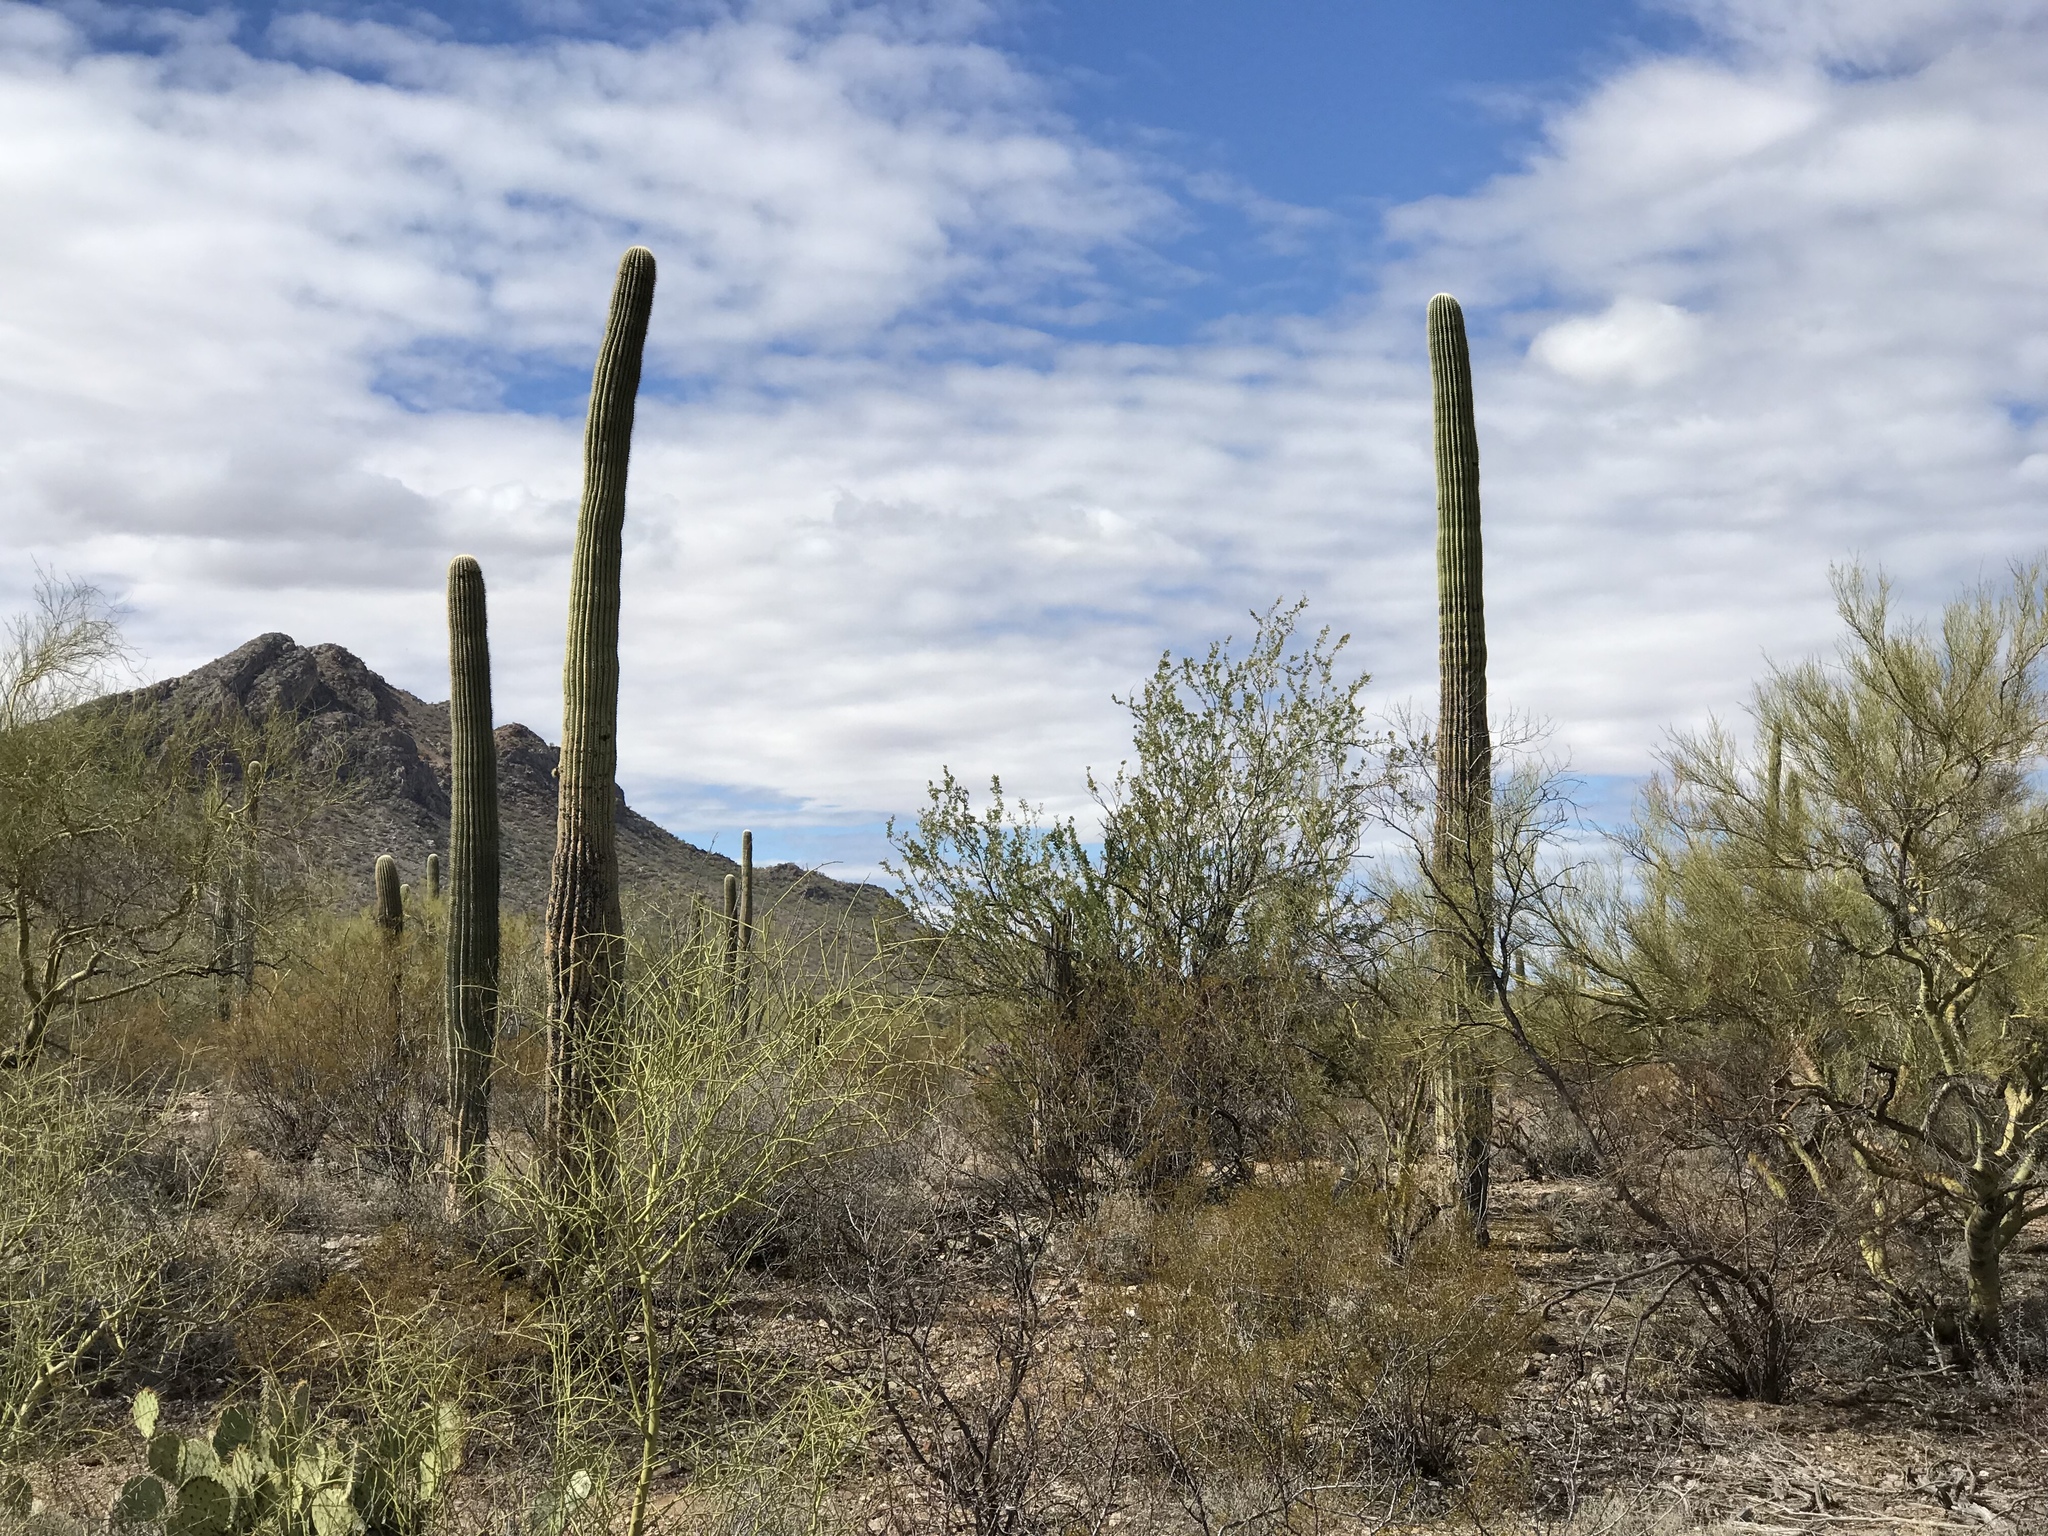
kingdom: Plantae
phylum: Tracheophyta
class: Magnoliopsida
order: Caryophyllales
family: Cactaceae
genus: Carnegiea
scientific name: Carnegiea gigantea
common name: Saguaro
